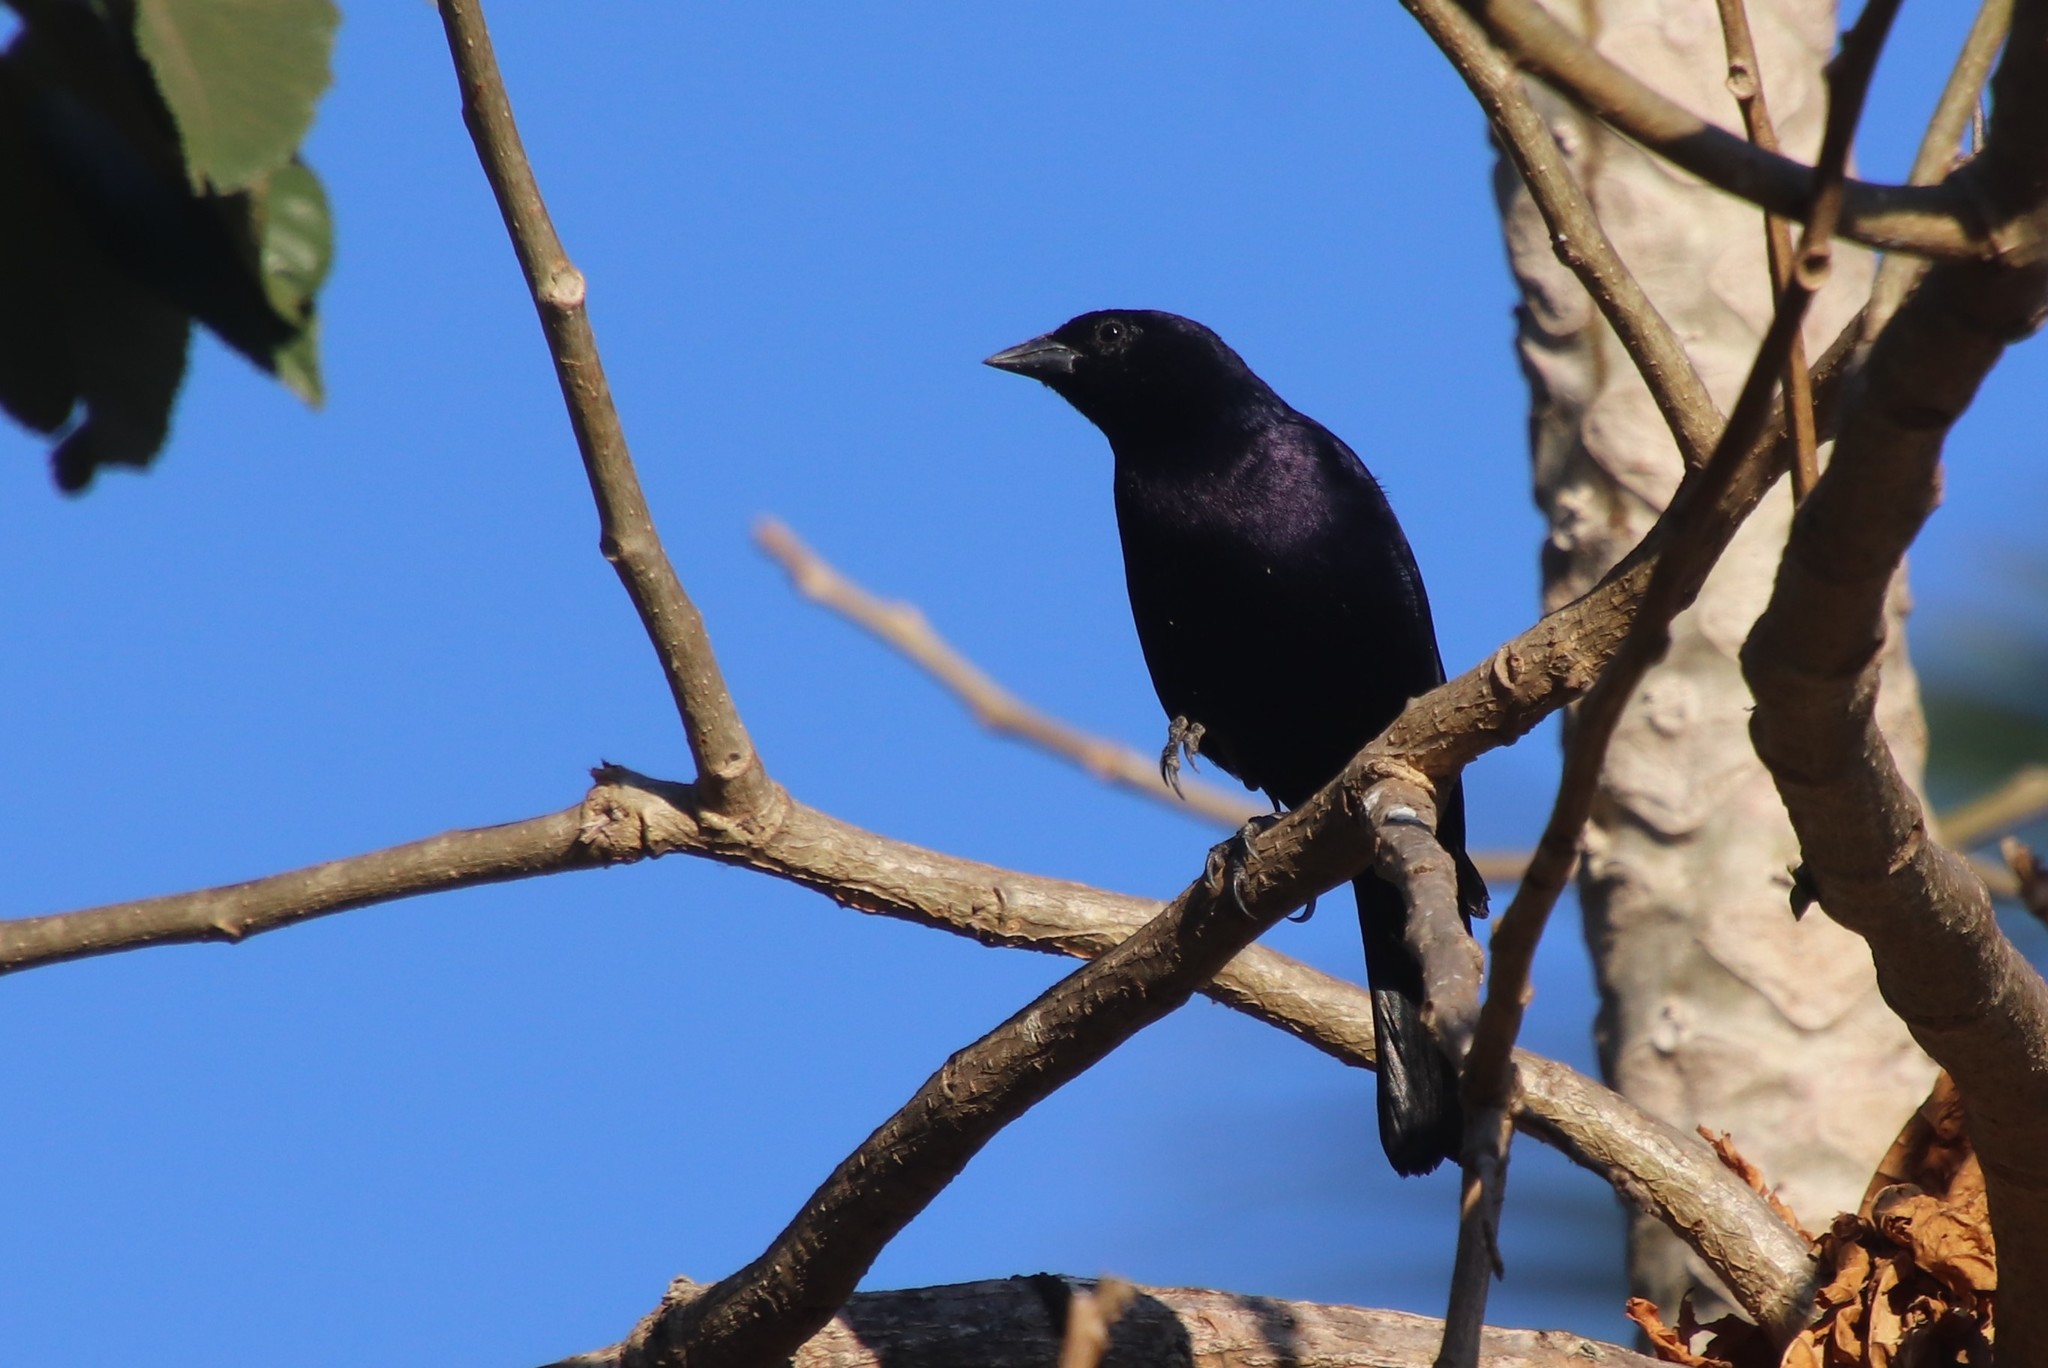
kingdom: Animalia
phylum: Chordata
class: Aves
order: Passeriformes
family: Icteridae
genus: Molothrus
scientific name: Molothrus bonariensis
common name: Shiny cowbird
